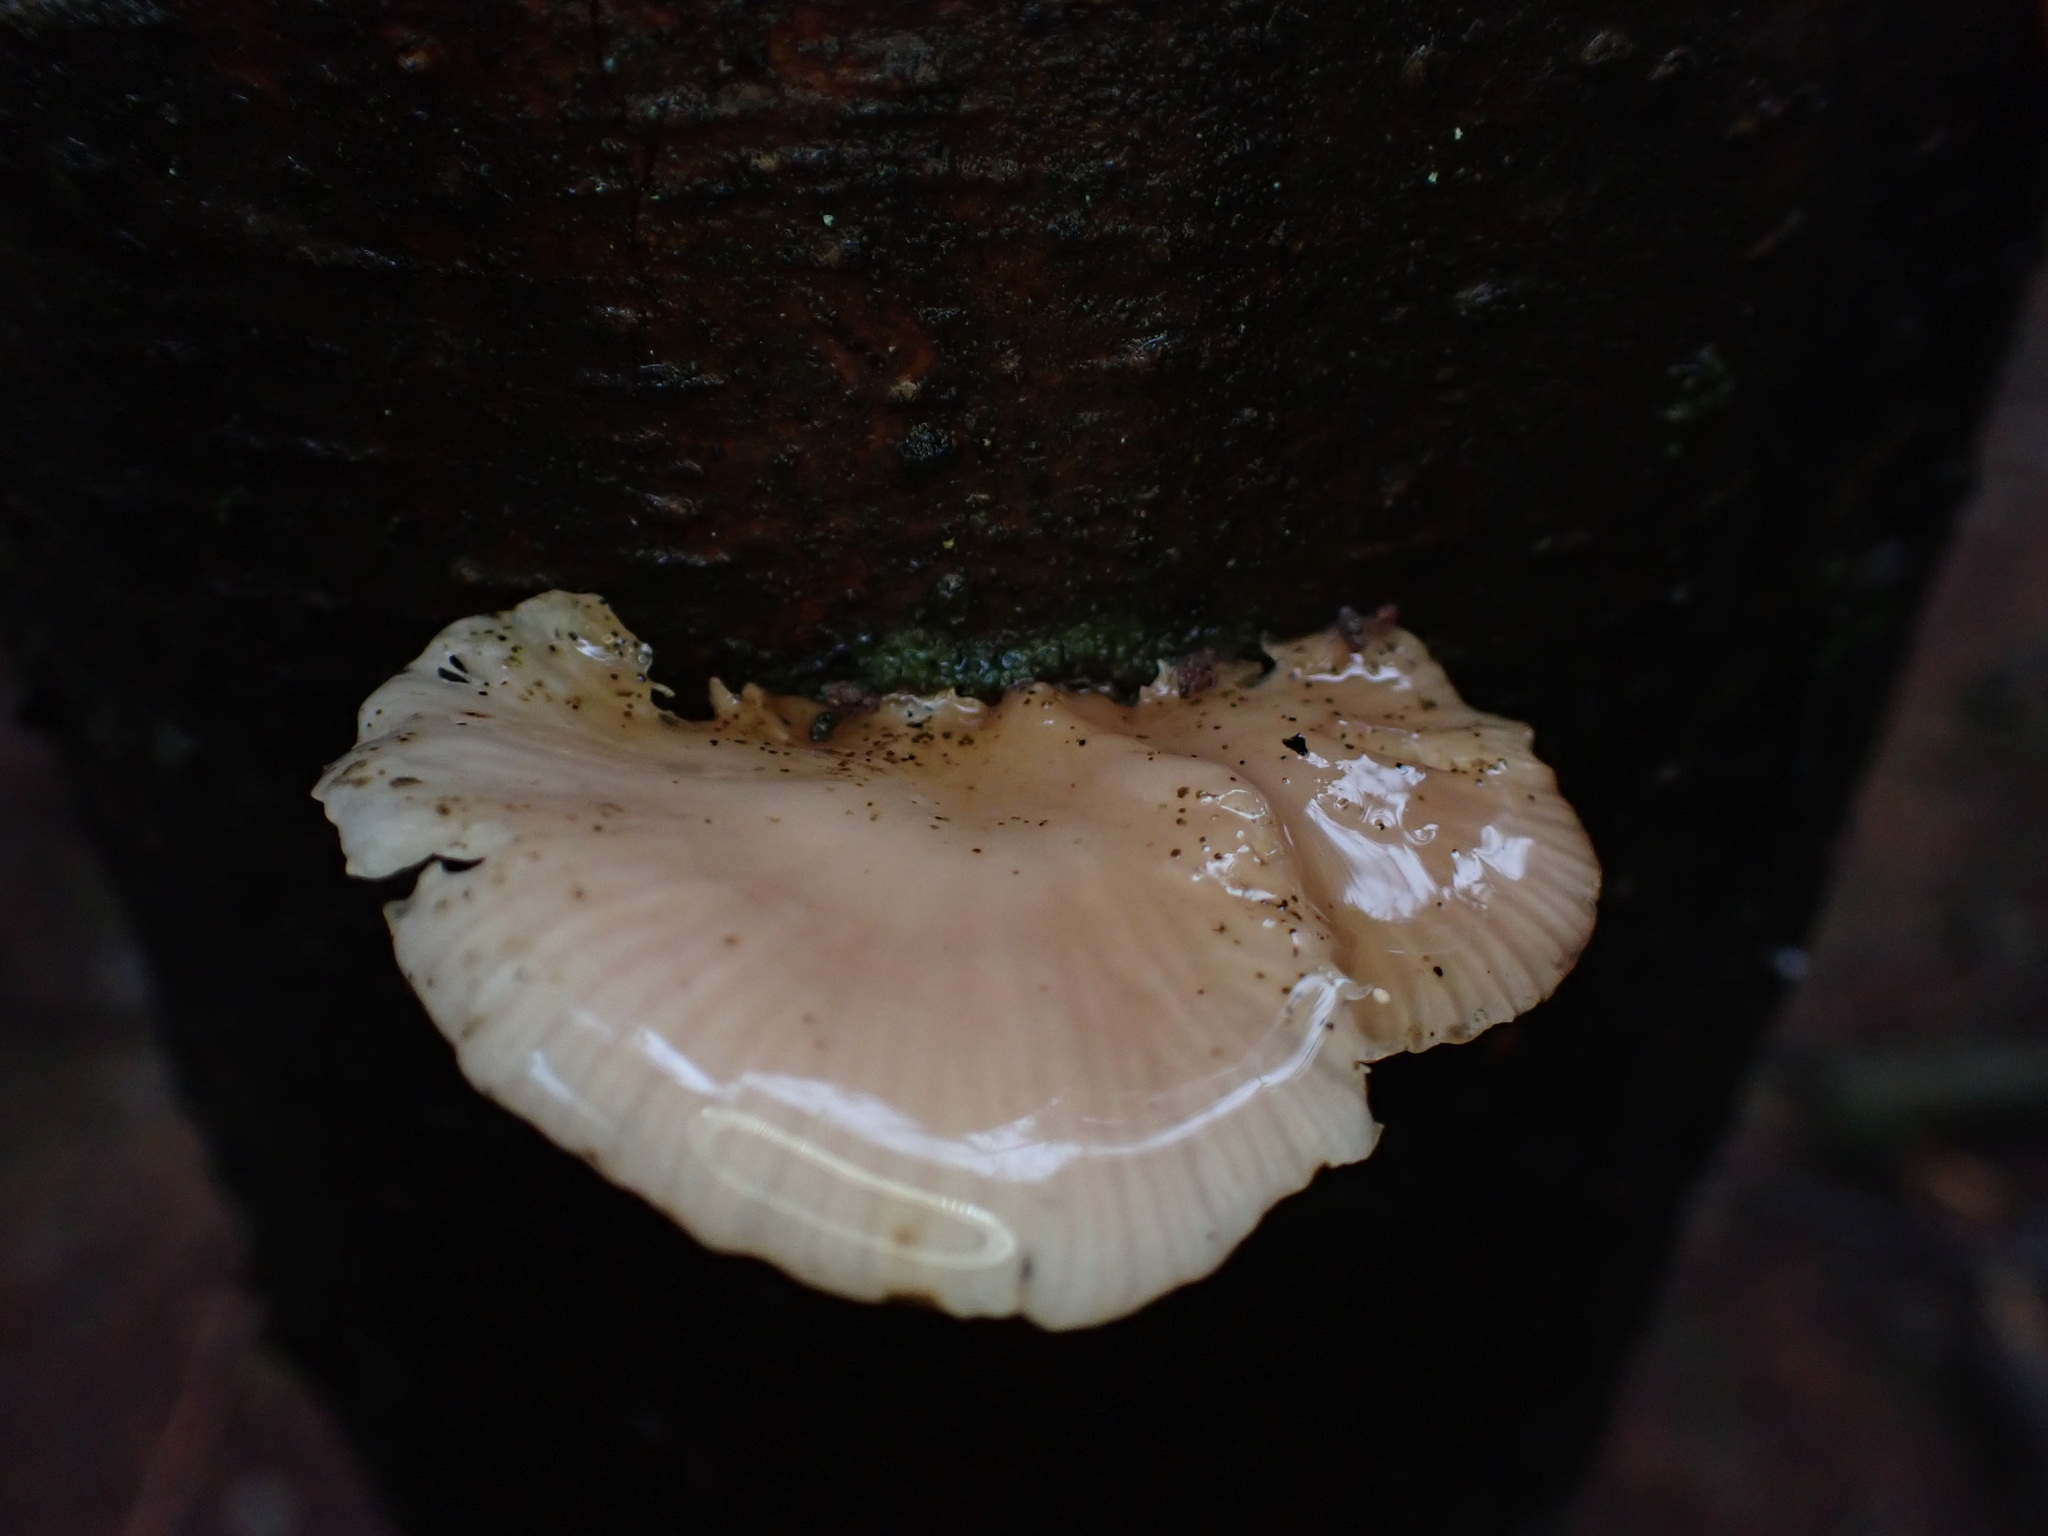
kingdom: Fungi
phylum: Basidiomycota
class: Agaricomycetes
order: Agaricales
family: Mycenaceae
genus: Panellus
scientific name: Panellus longinquus
